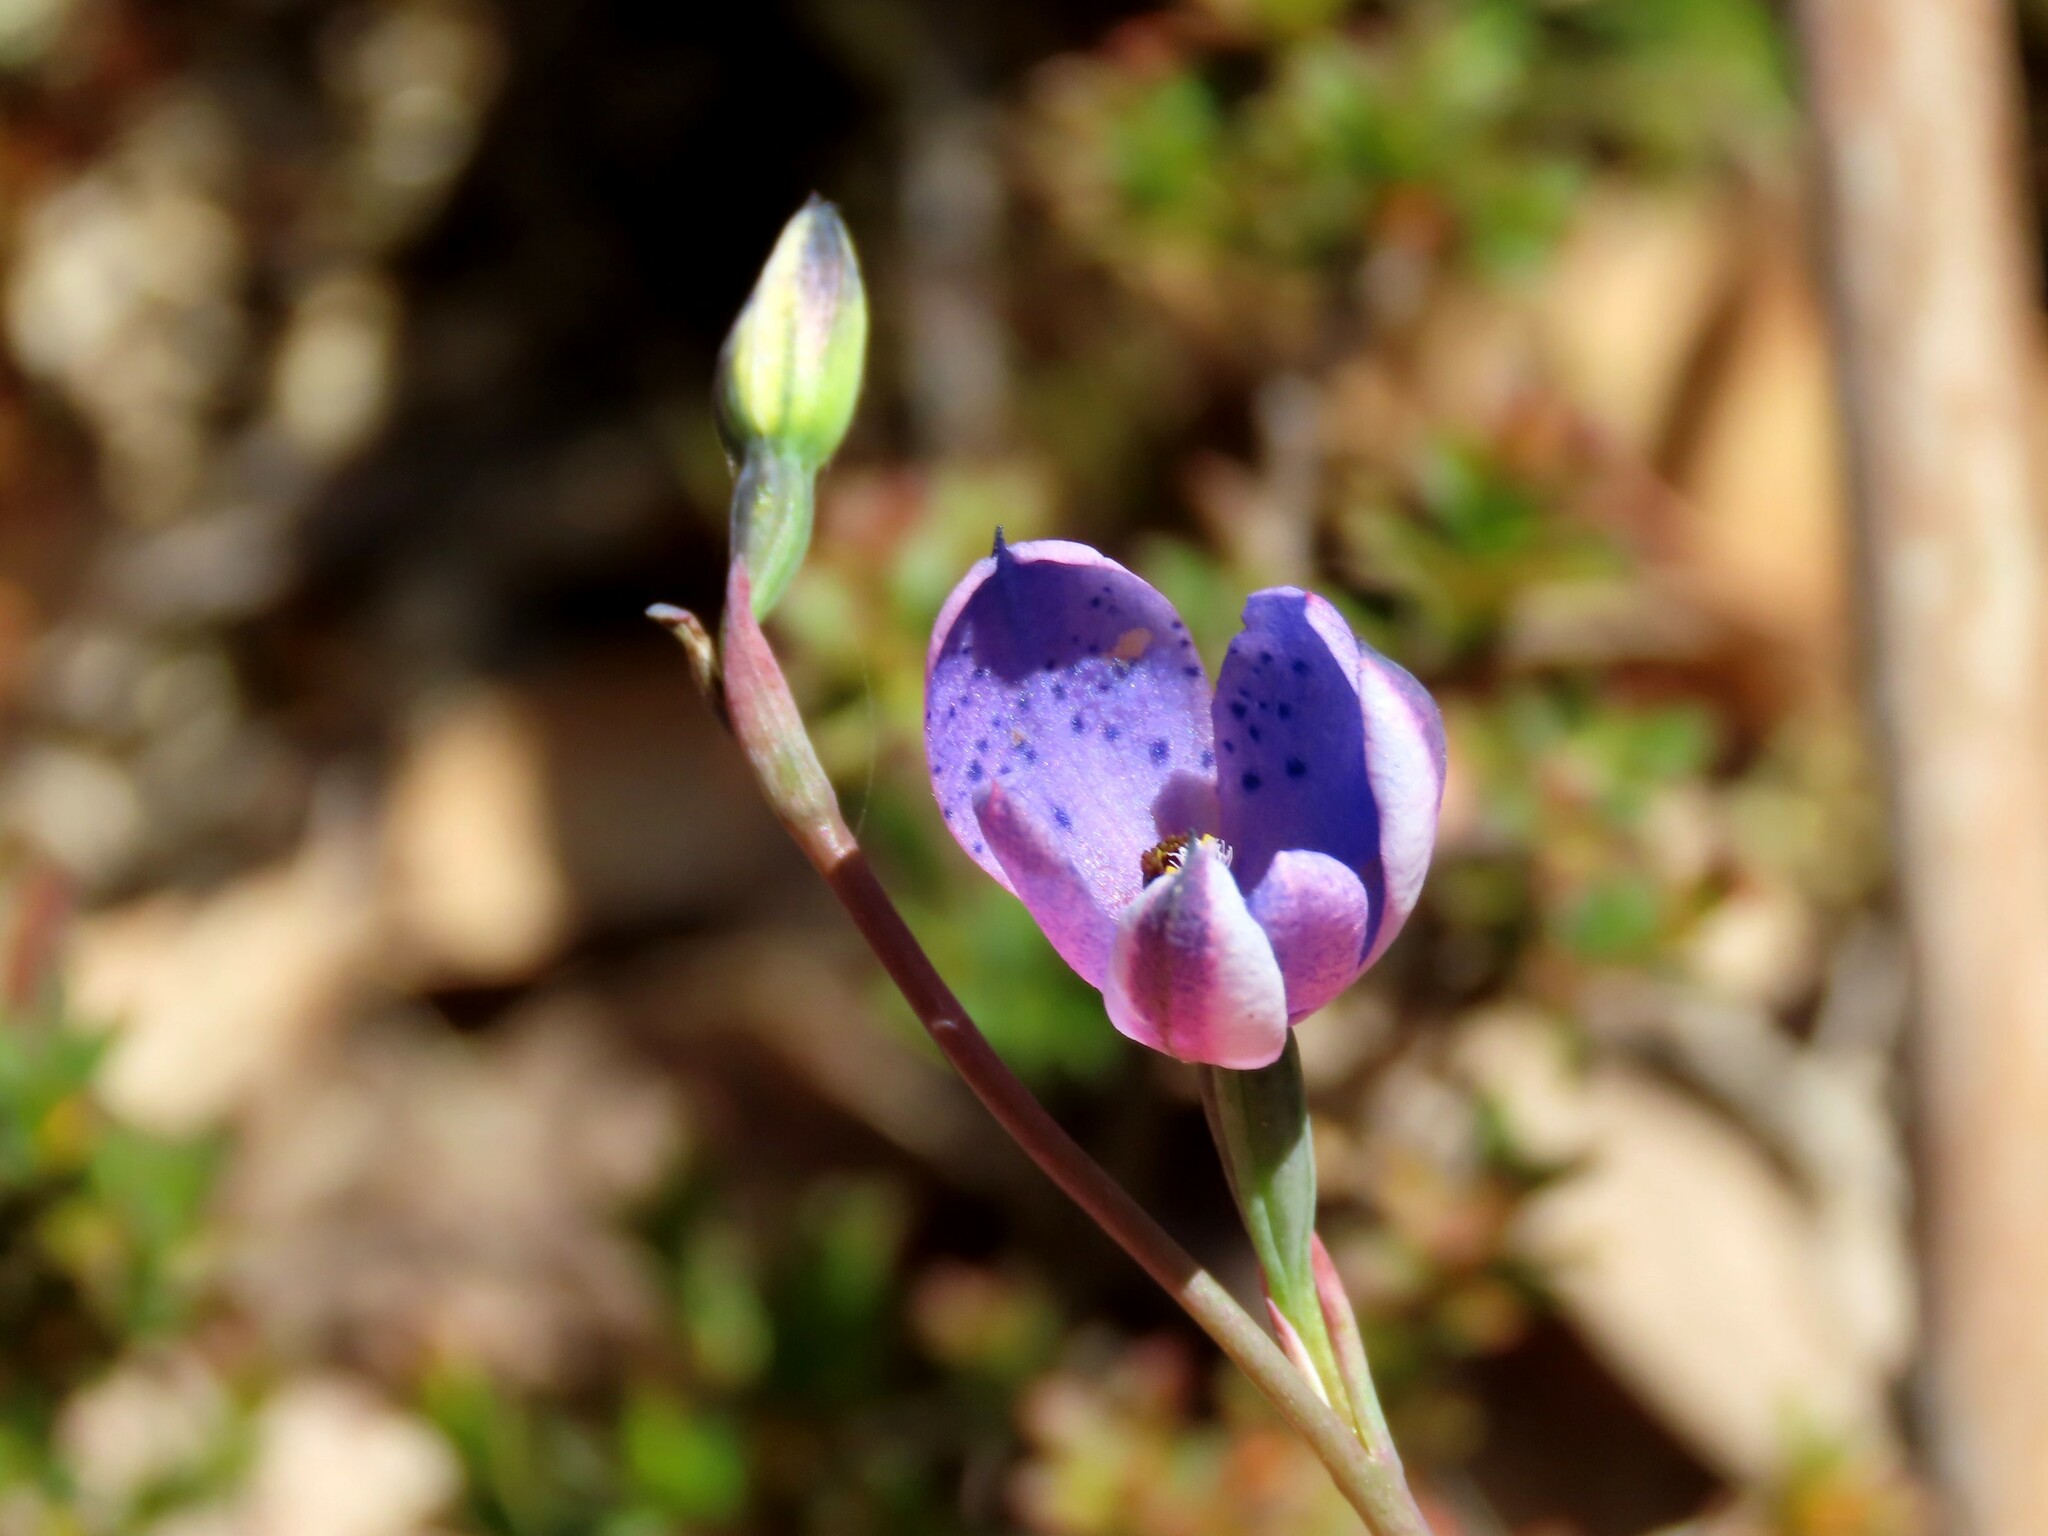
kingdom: Plantae
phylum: Tracheophyta
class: Liliopsida
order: Asparagales
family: Orchidaceae
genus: Thelymitra
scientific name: Thelymitra ixioides
